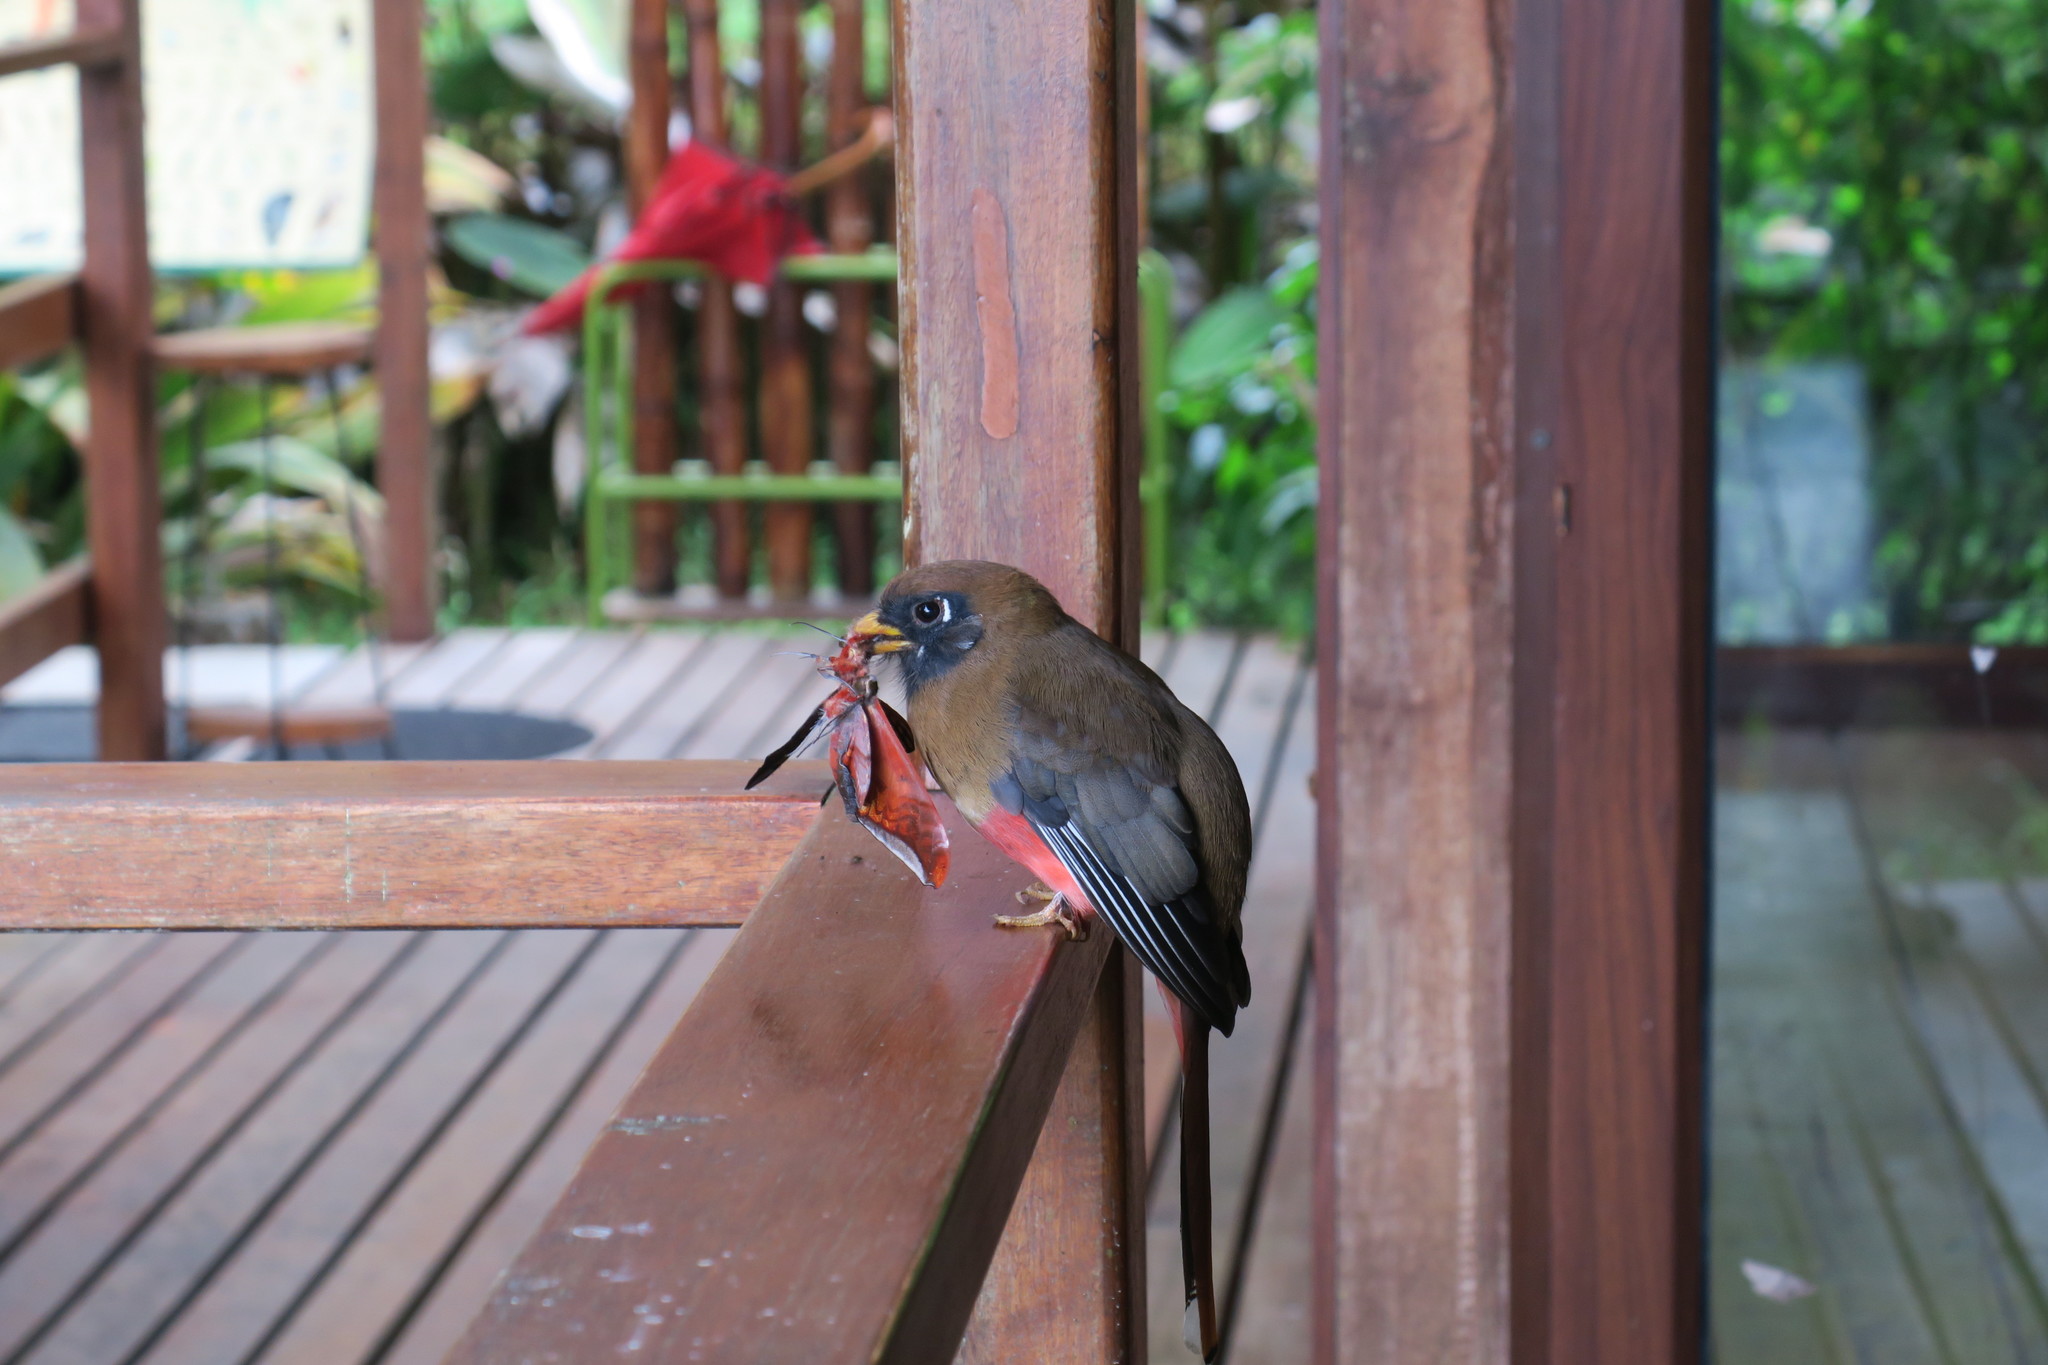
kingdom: Animalia
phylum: Chordata
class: Aves
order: Trogoniformes
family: Trogonidae
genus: Trogon
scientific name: Trogon personatus
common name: Masked trogon
